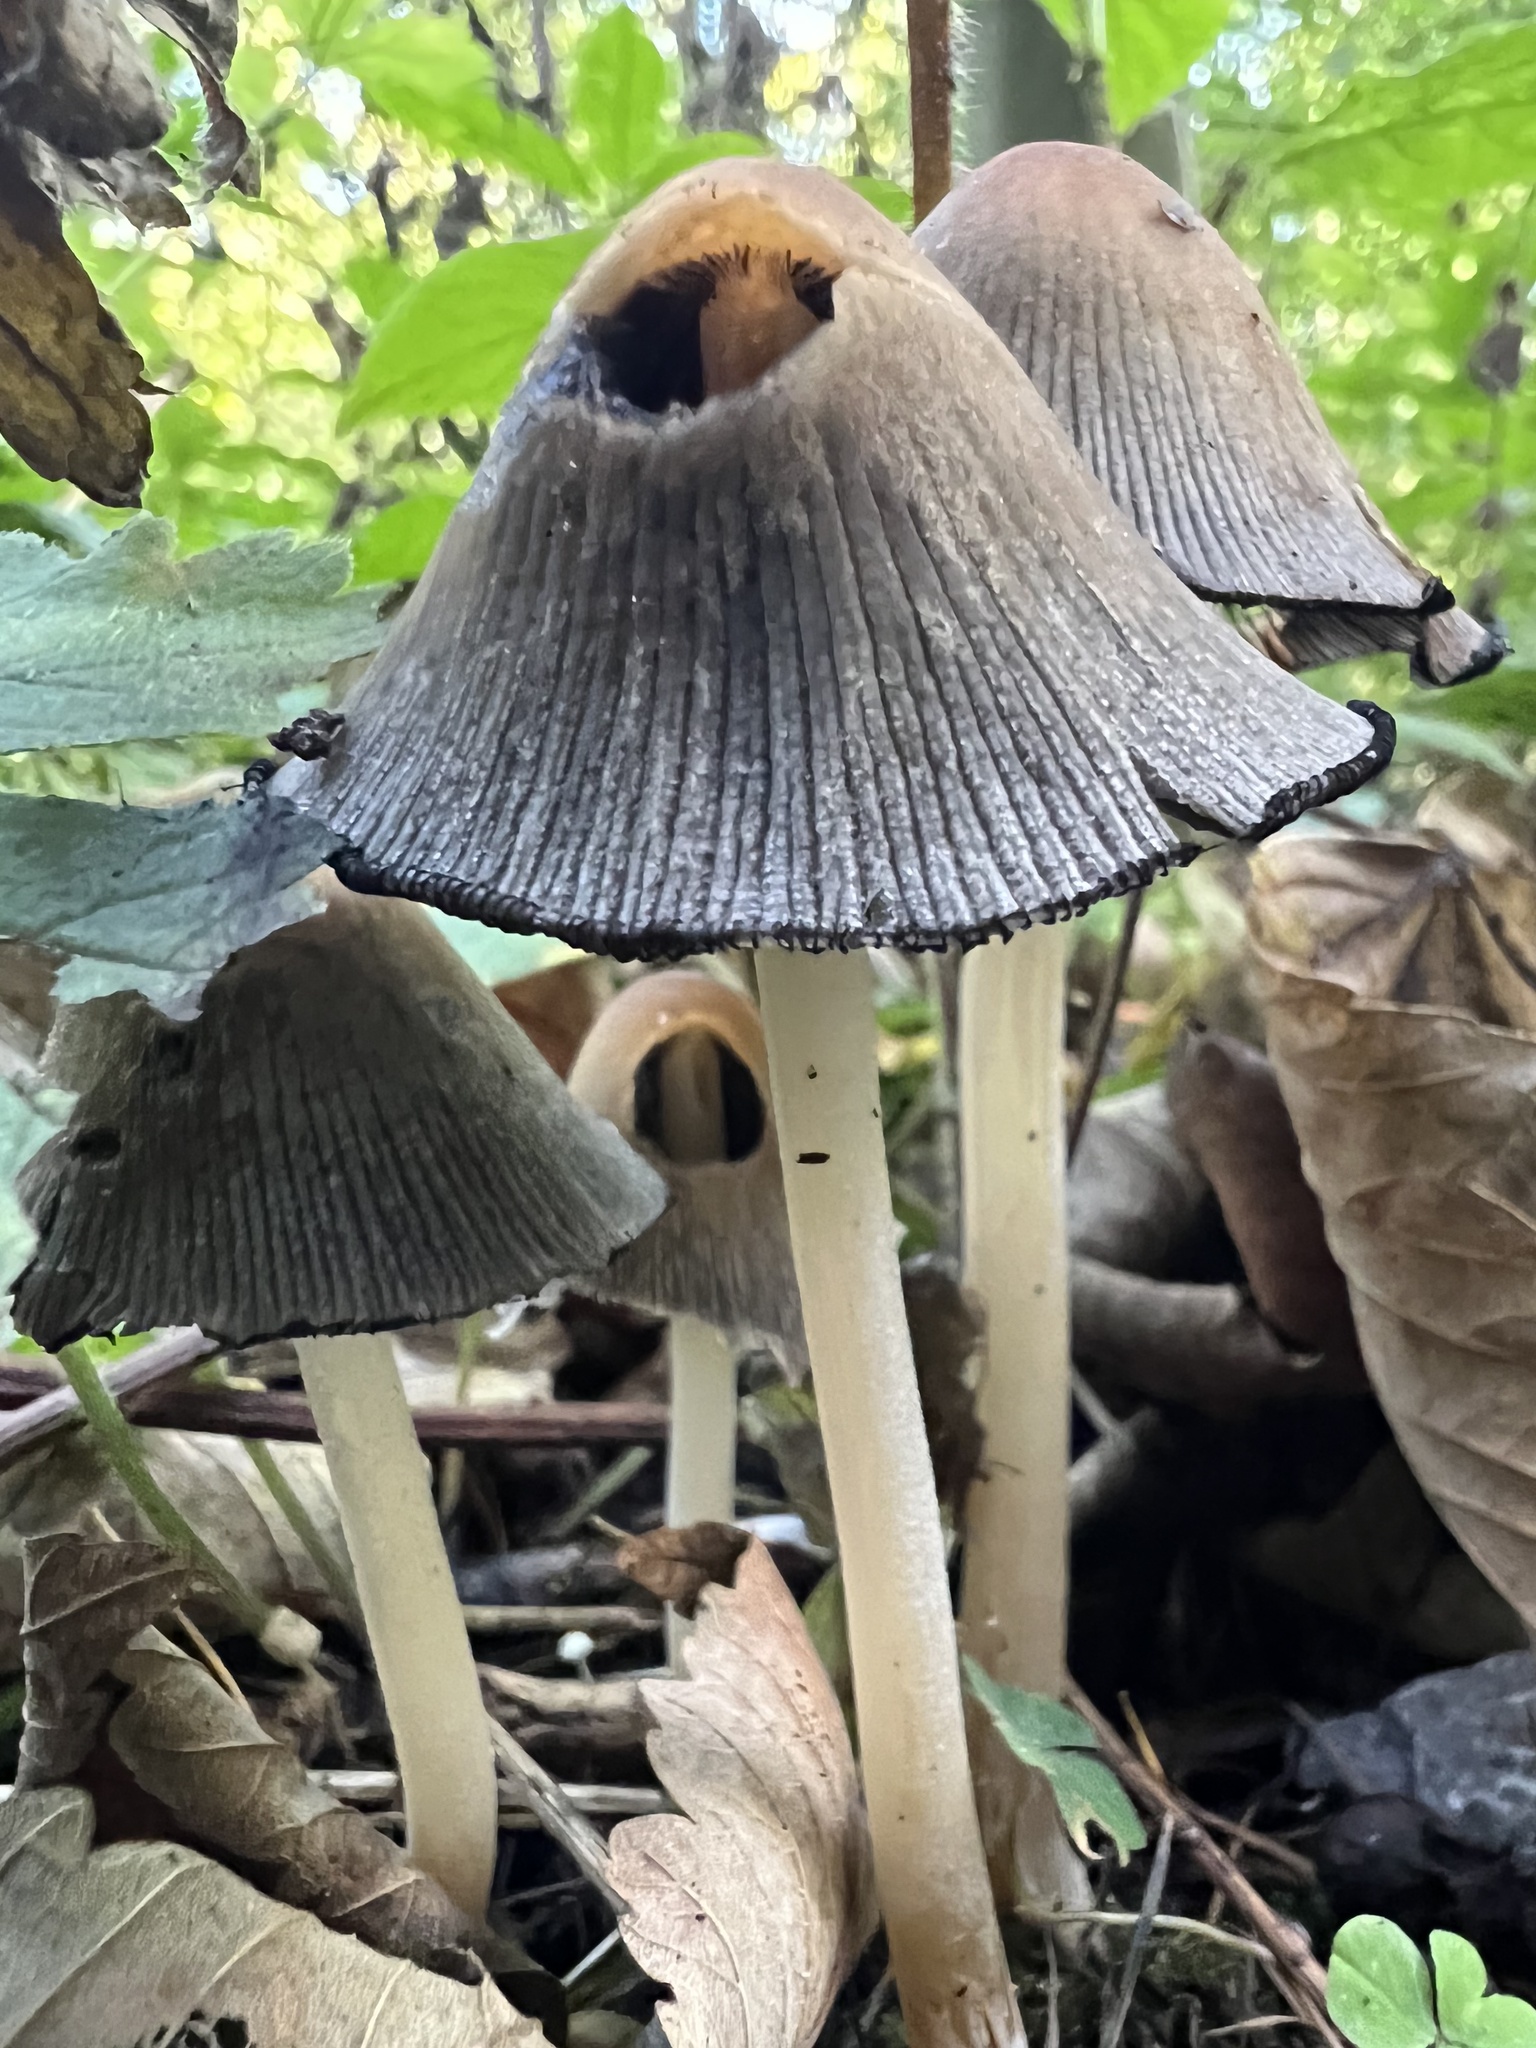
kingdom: Fungi
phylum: Basidiomycota
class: Agaricomycetes
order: Agaricales
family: Psathyrellaceae
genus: Coprinopsis
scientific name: Coprinopsis atramentaria
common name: Common ink-cap
